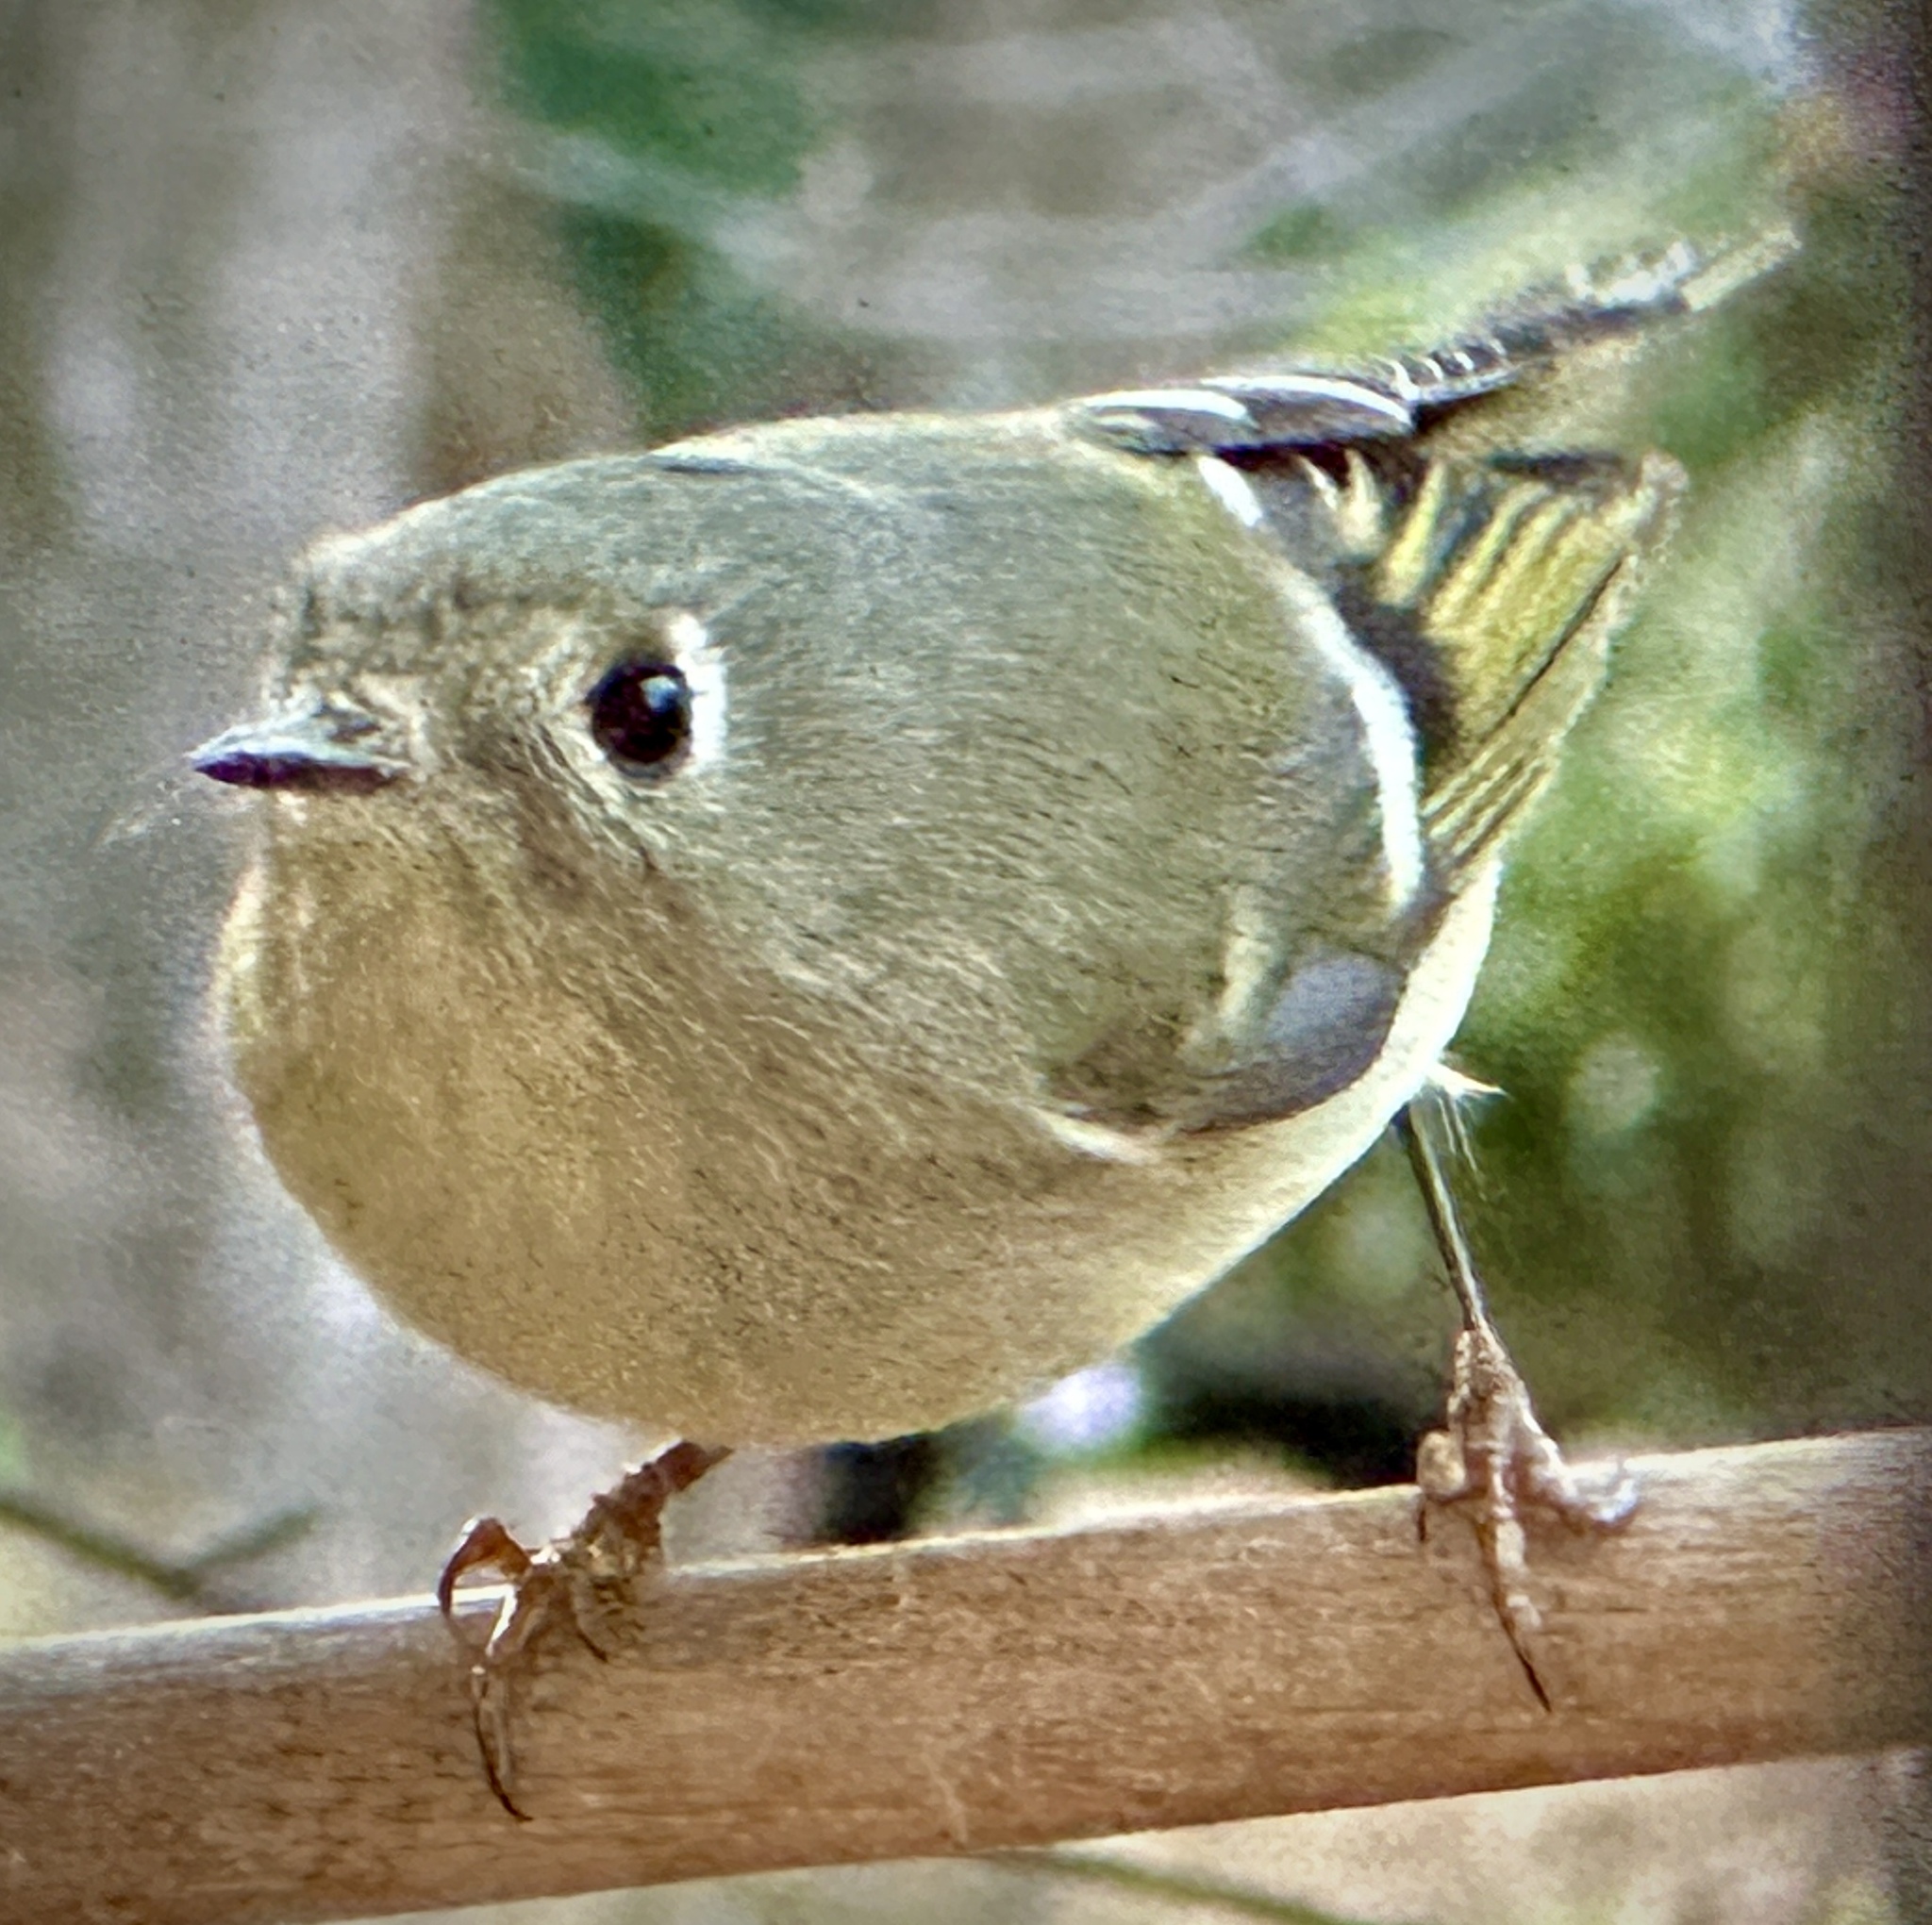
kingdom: Animalia
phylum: Chordata
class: Aves
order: Passeriformes
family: Regulidae
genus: Regulus
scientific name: Regulus calendula
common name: Ruby-crowned kinglet
